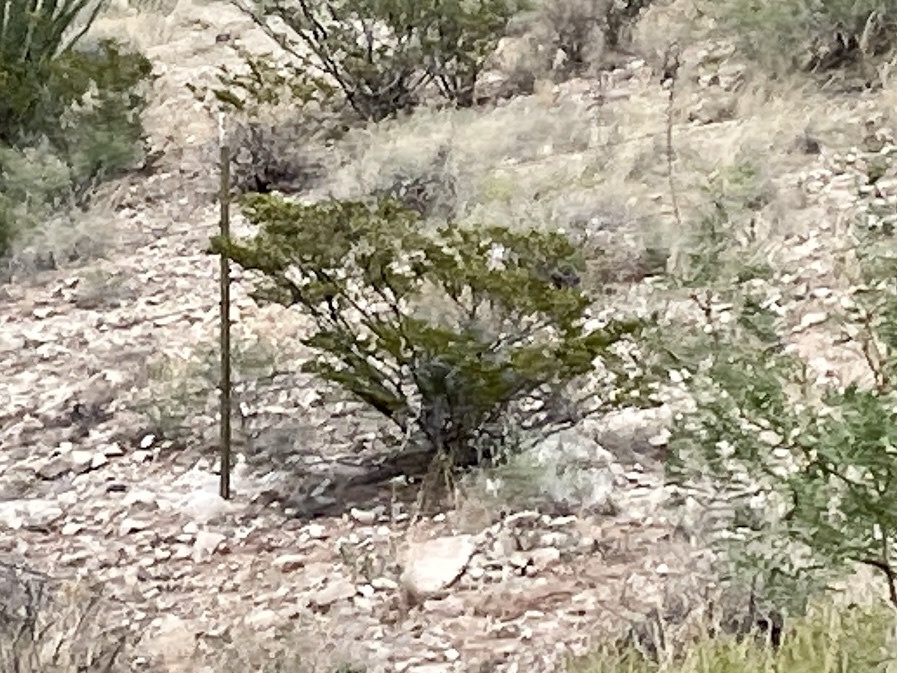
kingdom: Plantae
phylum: Tracheophyta
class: Magnoliopsida
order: Zygophyllales
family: Zygophyllaceae
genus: Larrea
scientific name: Larrea tridentata
